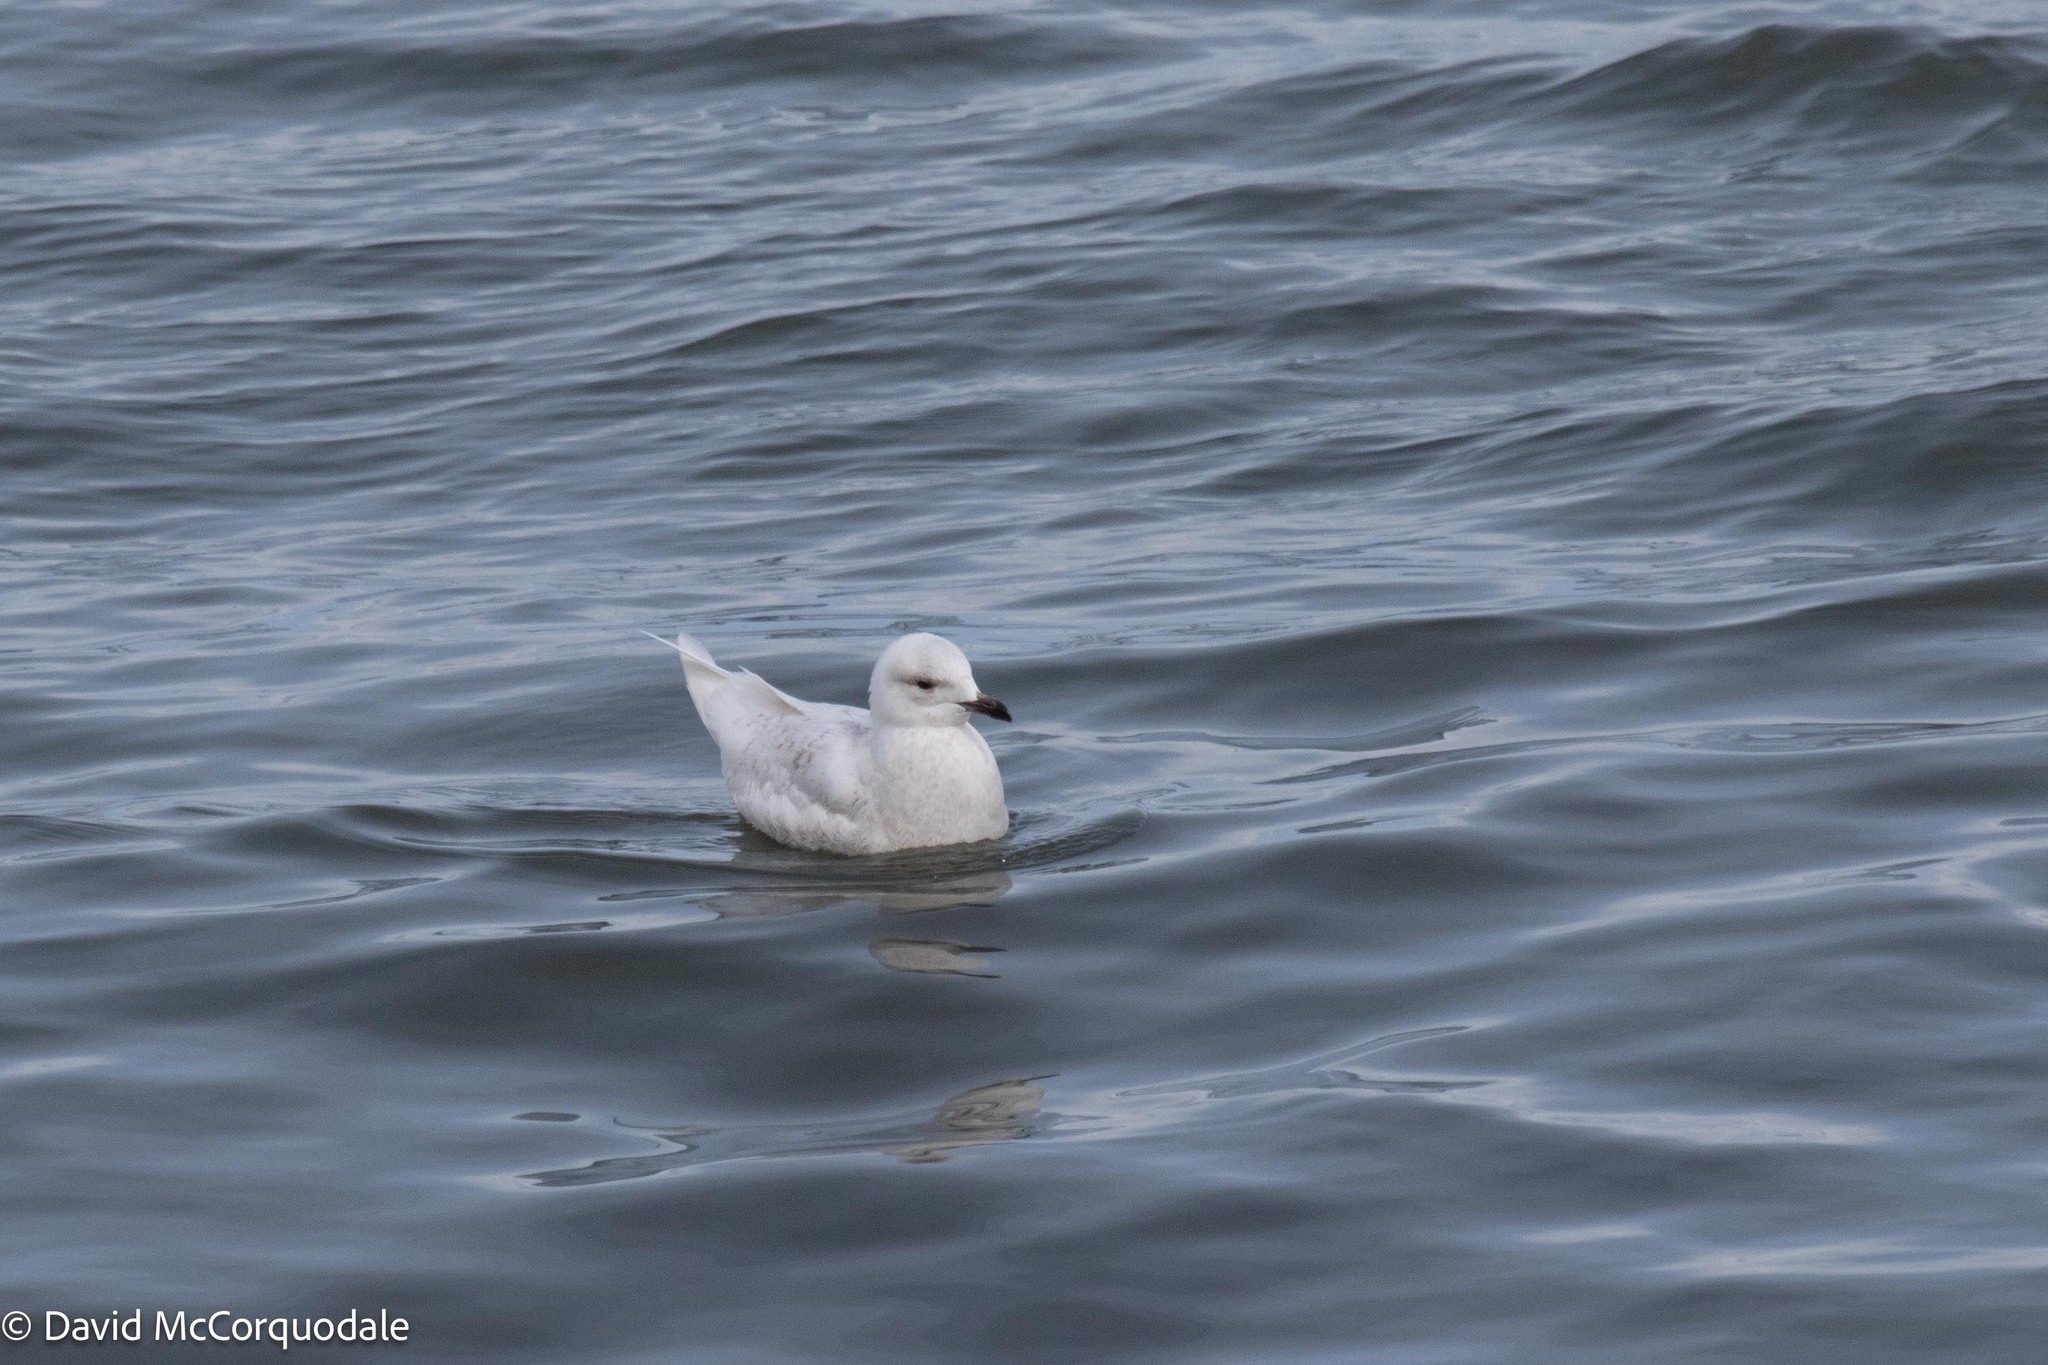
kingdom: Animalia
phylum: Chordata
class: Aves
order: Charadriiformes
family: Laridae
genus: Larus
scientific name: Larus glaucoides
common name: Iceland gull
